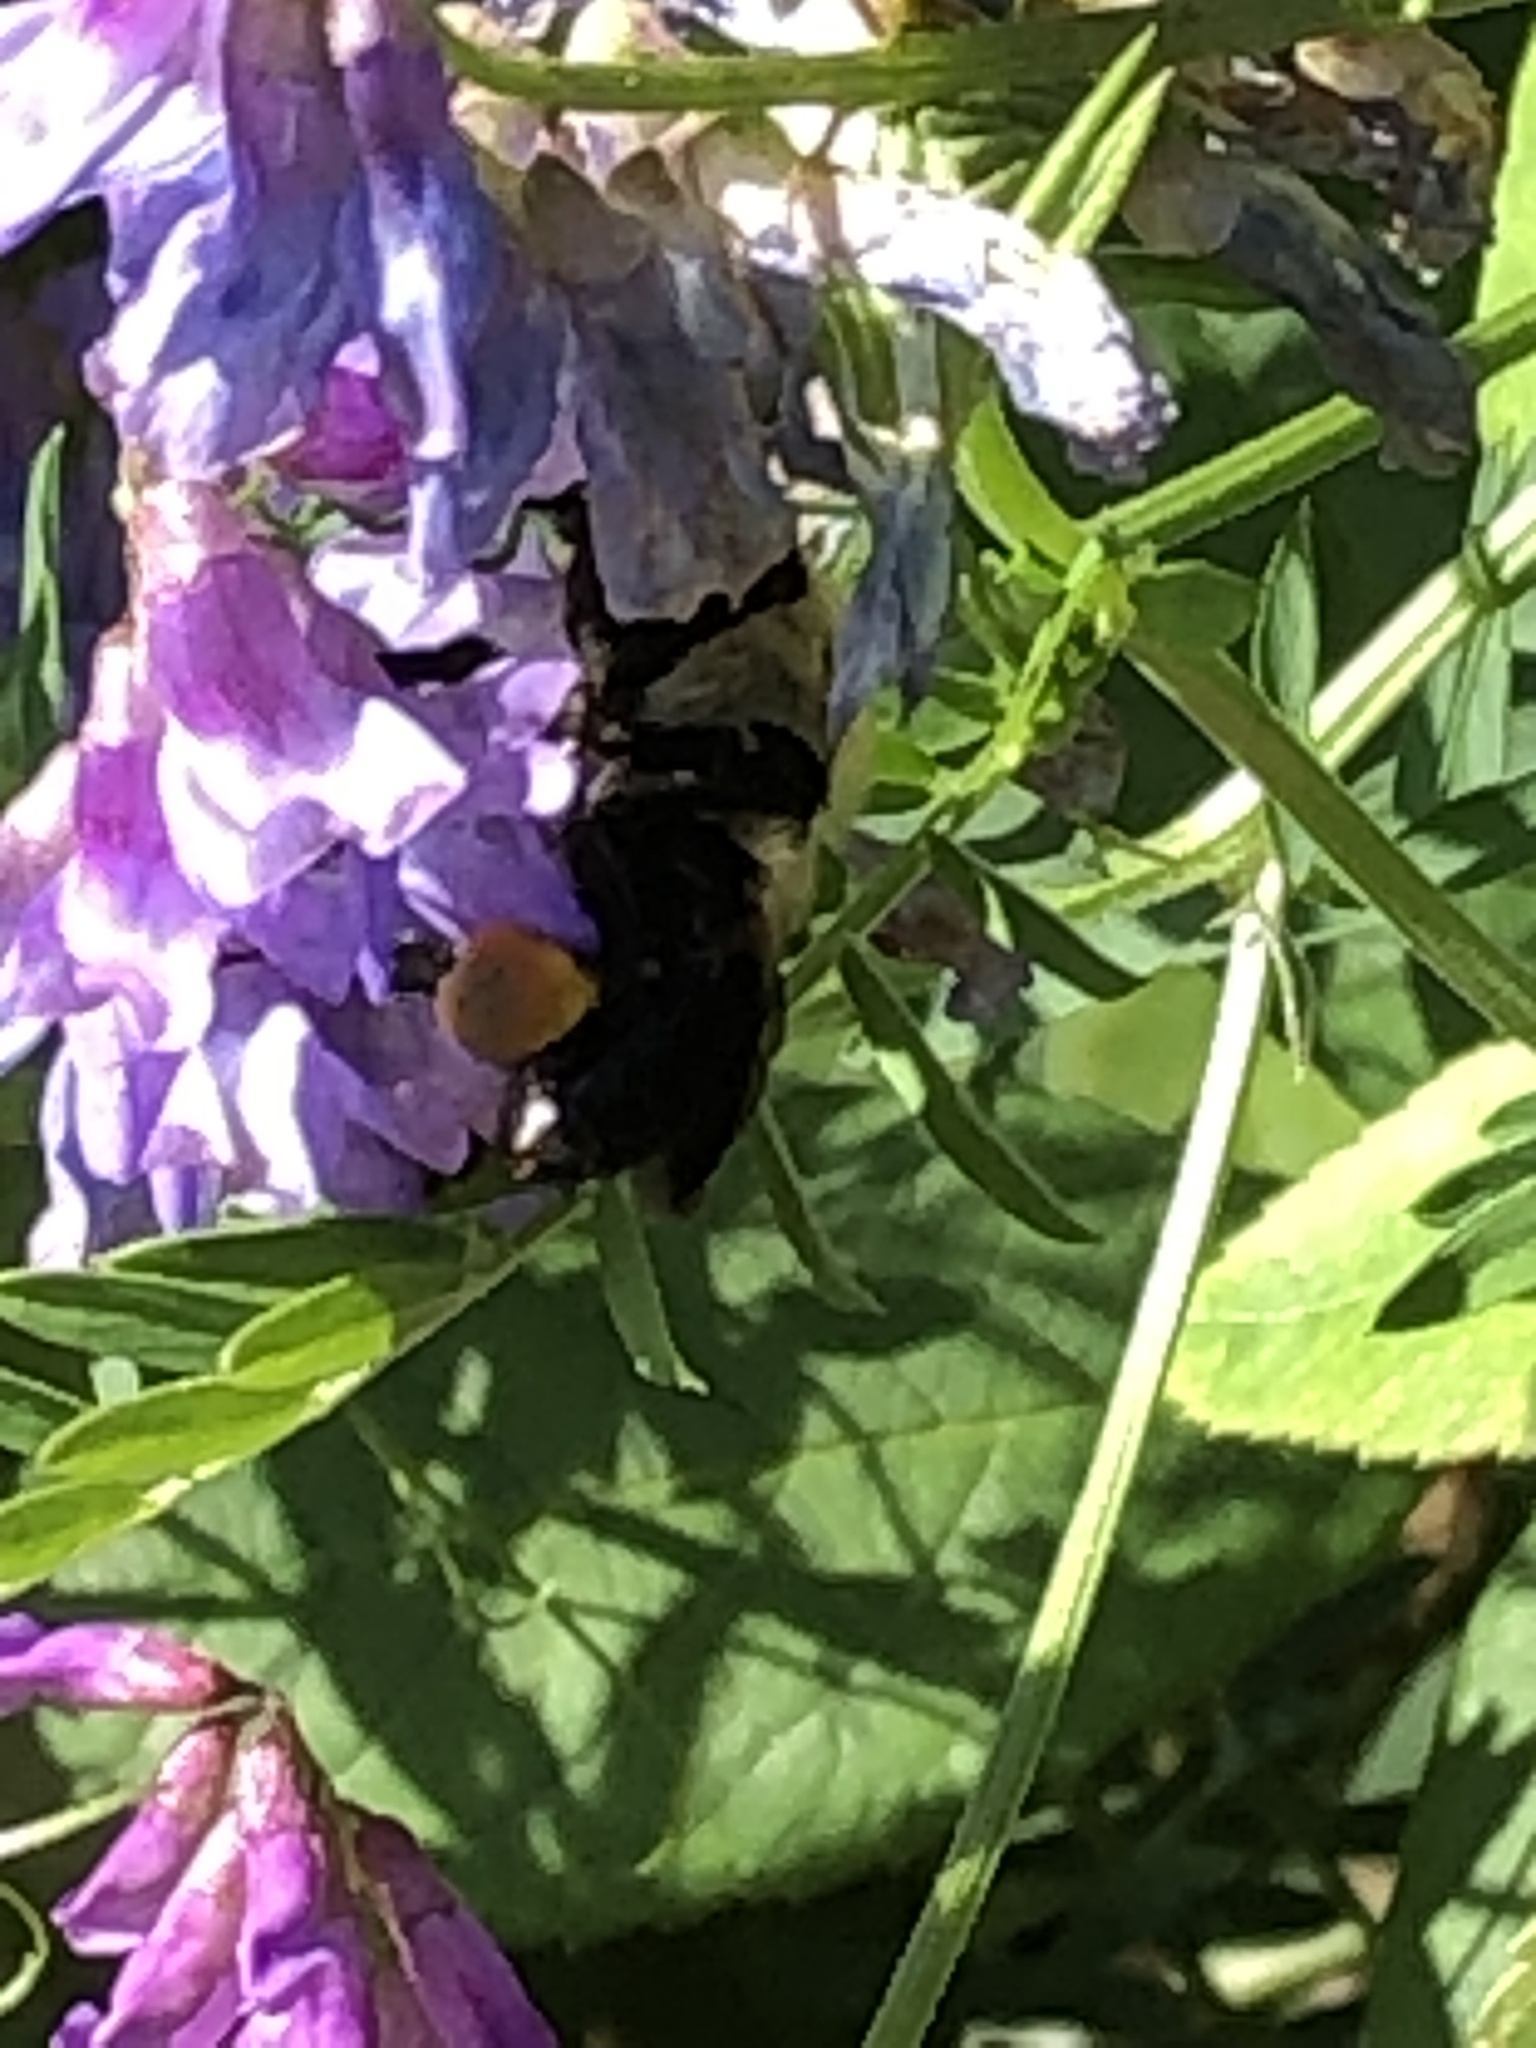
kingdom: Animalia
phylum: Arthropoda
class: Insecta
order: Hymenoptera
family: Apidae
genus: Bombus
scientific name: Bombus griseocollis
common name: Brown-belted bumble bee
